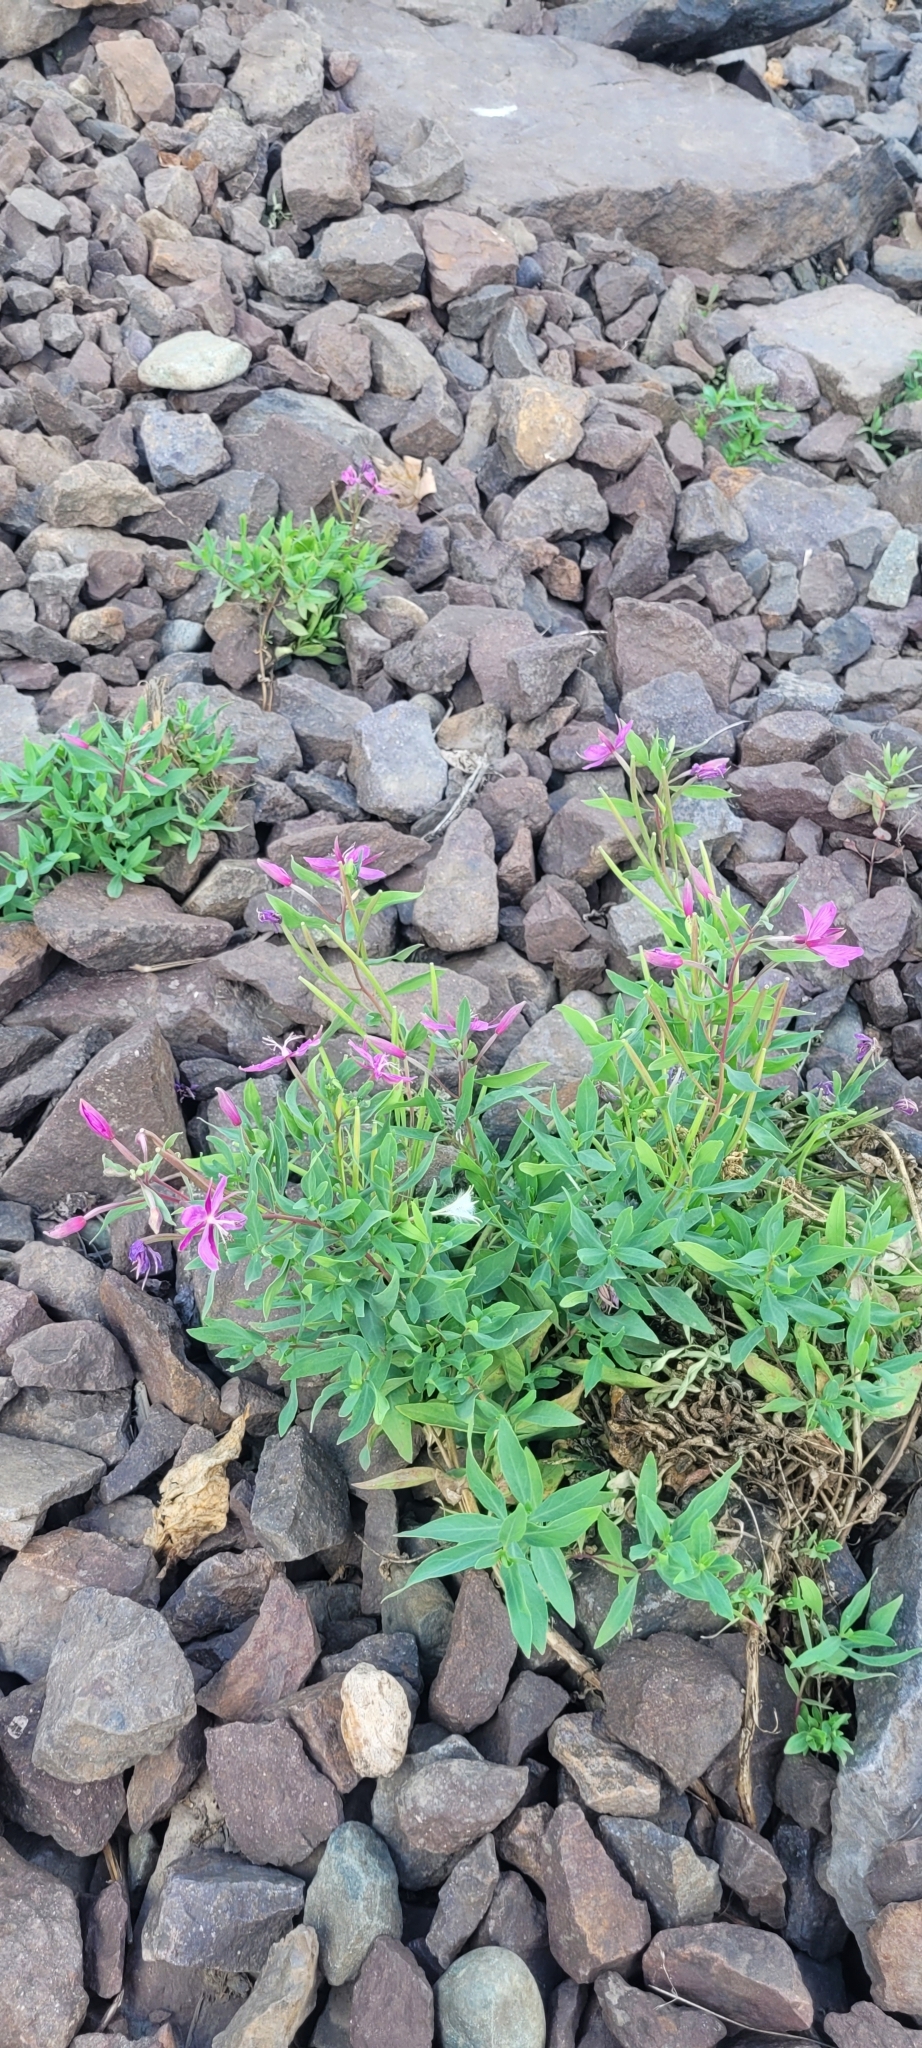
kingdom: Plantae
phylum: Tracheophyta
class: Magnoliopsida
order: Myrtales
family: Onagraceae
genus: Chamaenerion
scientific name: Chamaenerion latifolium
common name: Dwarf fireweed
